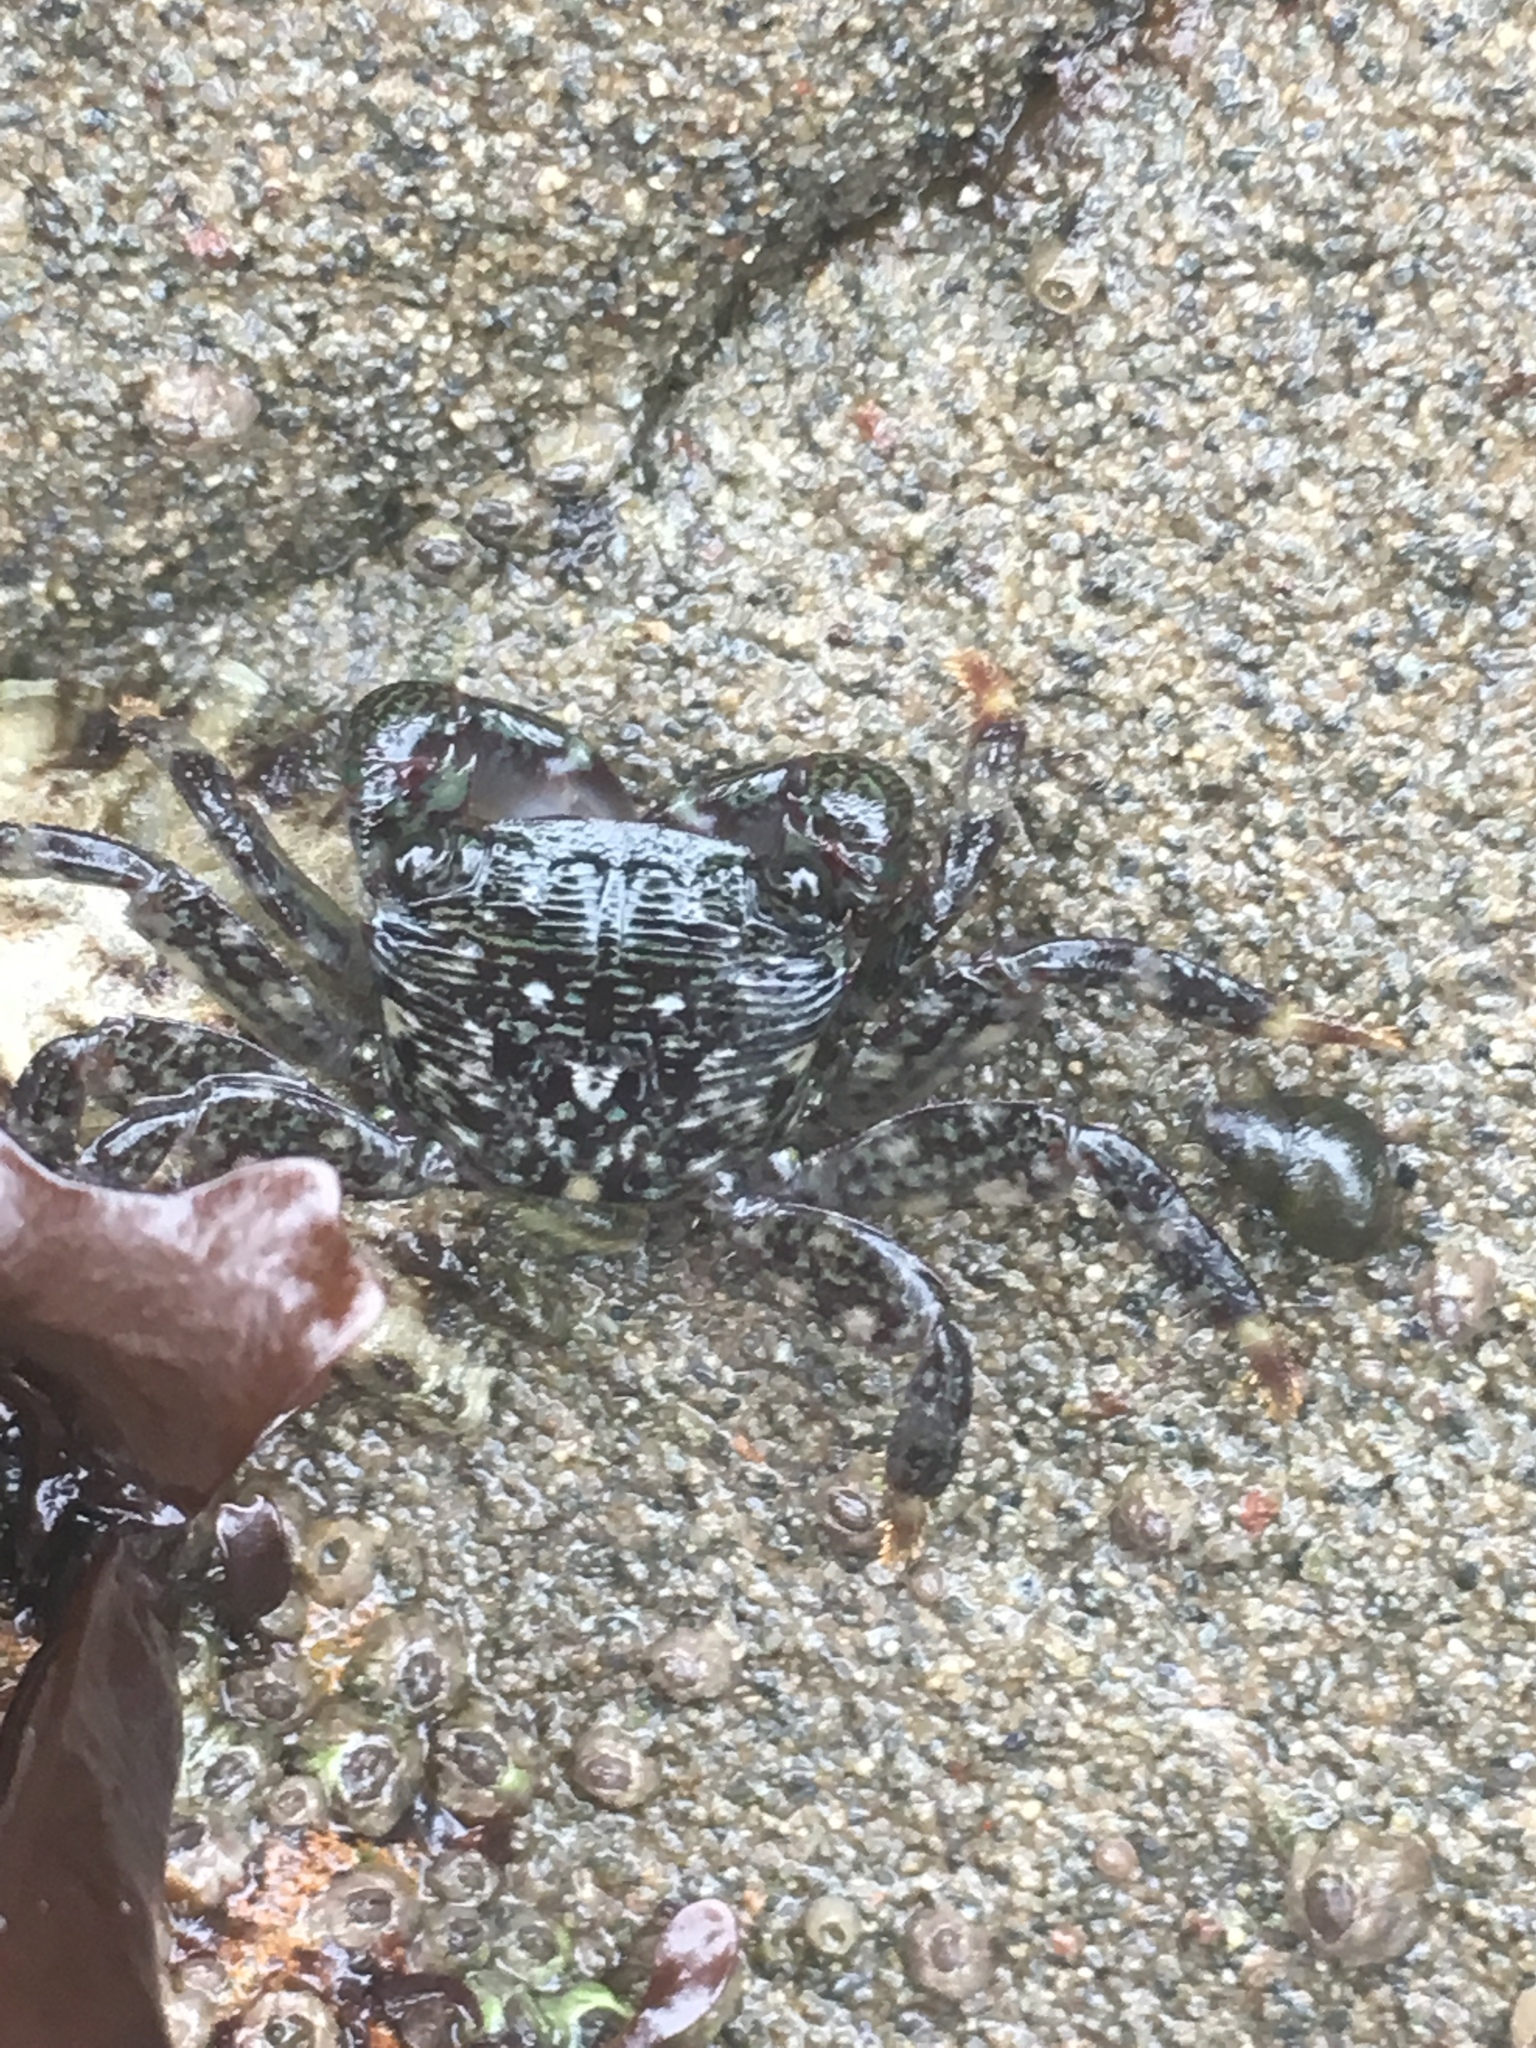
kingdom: Animalia
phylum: Arthropoda
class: Malacostraca
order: Decapoda
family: Grapsidae
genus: Pachygrapsus
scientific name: Pachygrapsus crassipes
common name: Striped shore crab
